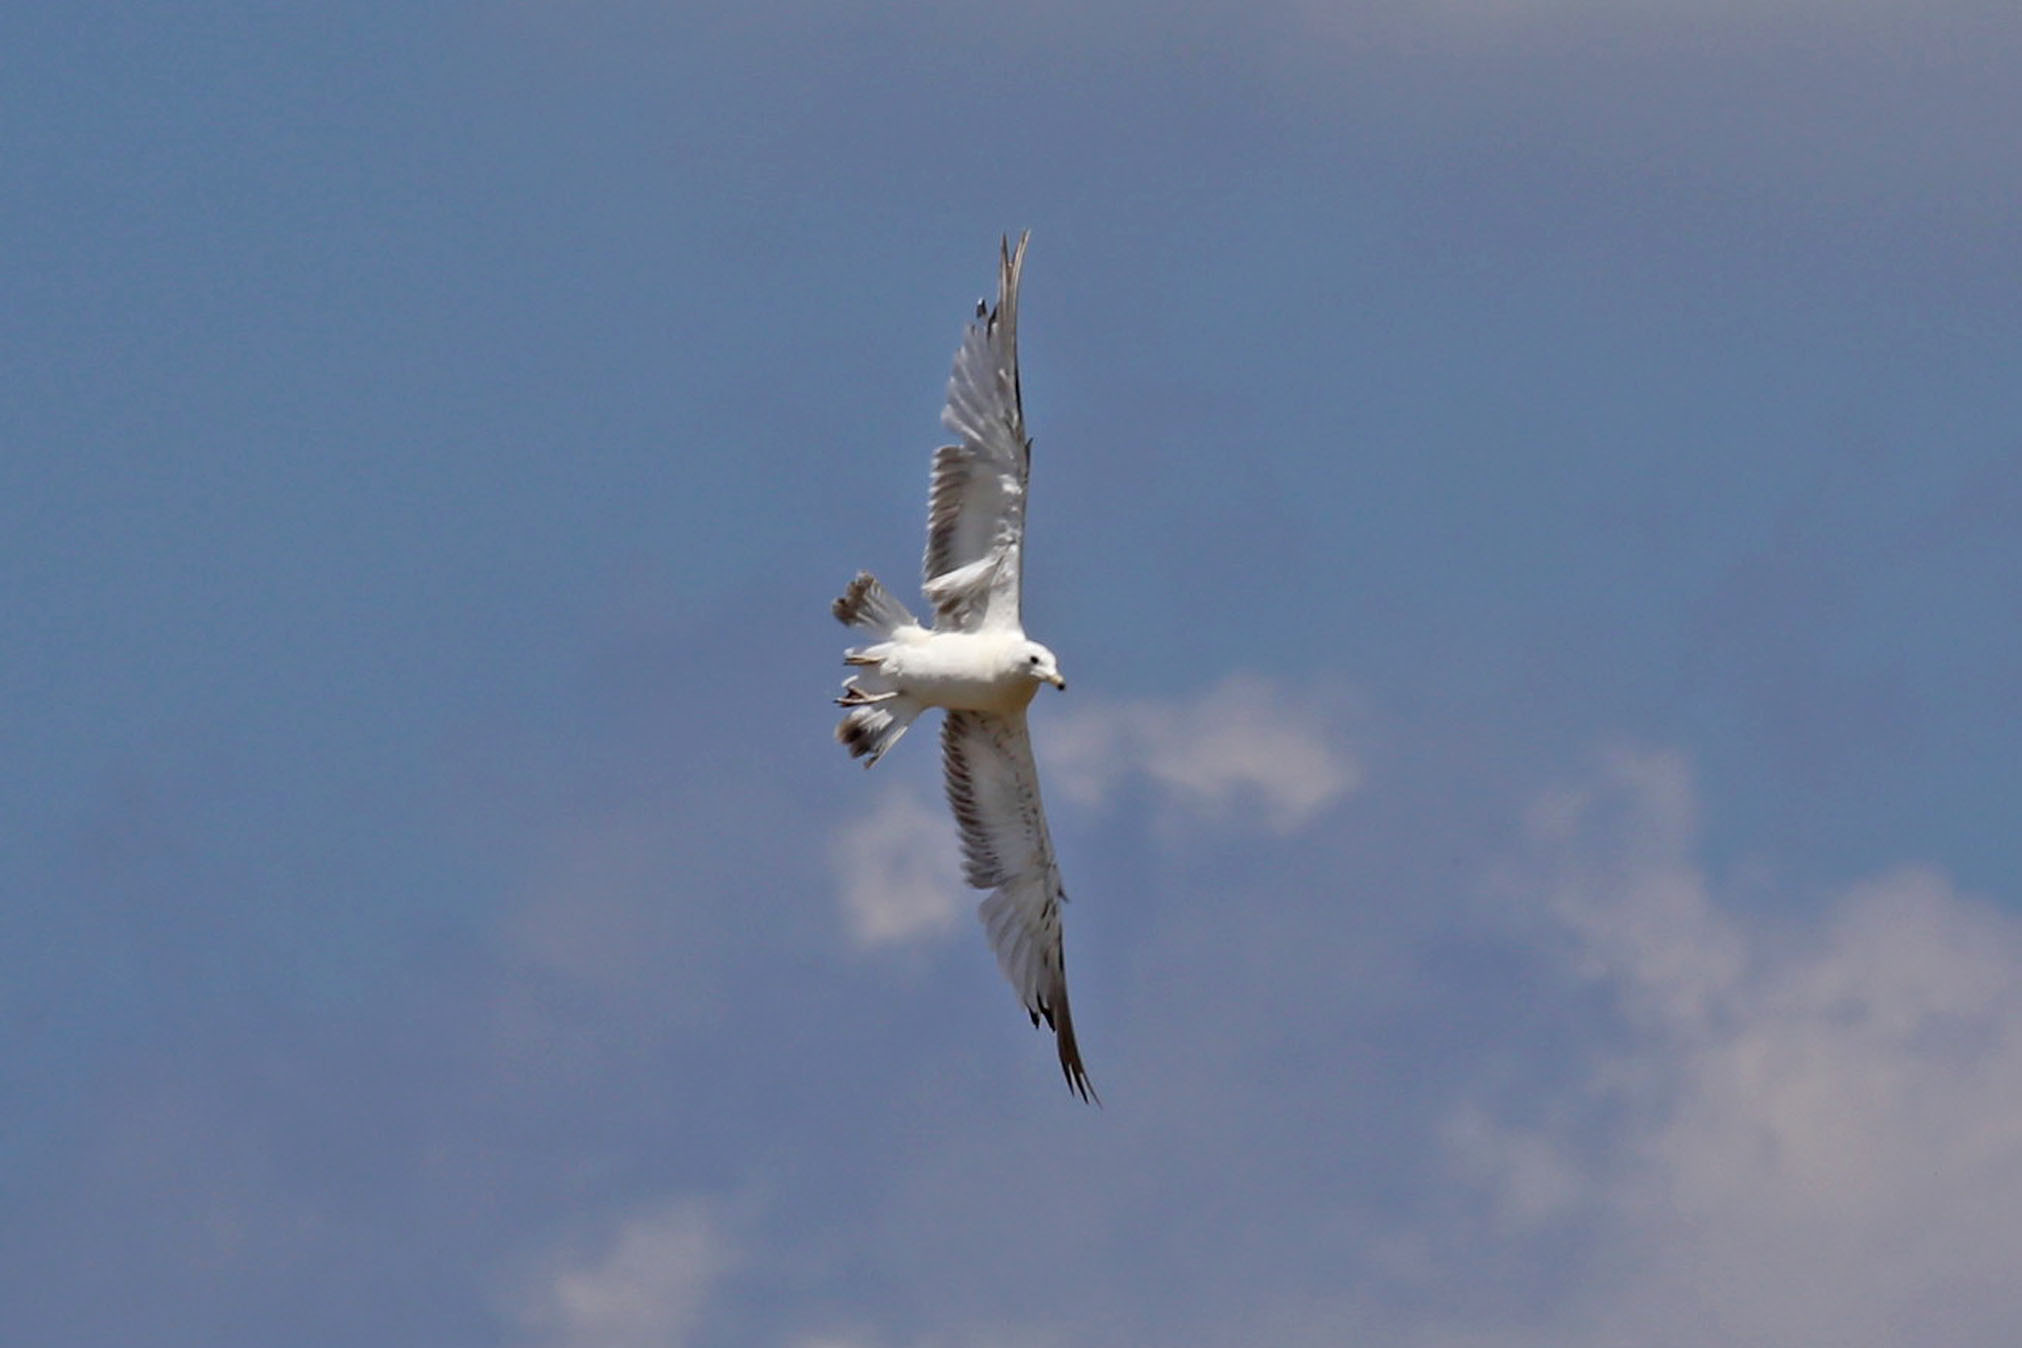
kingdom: Animalia
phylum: Chordata
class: Aves
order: Charadriiformes
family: Laridae
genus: Larus
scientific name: Larus delawarensis
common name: Ring-billed gull
